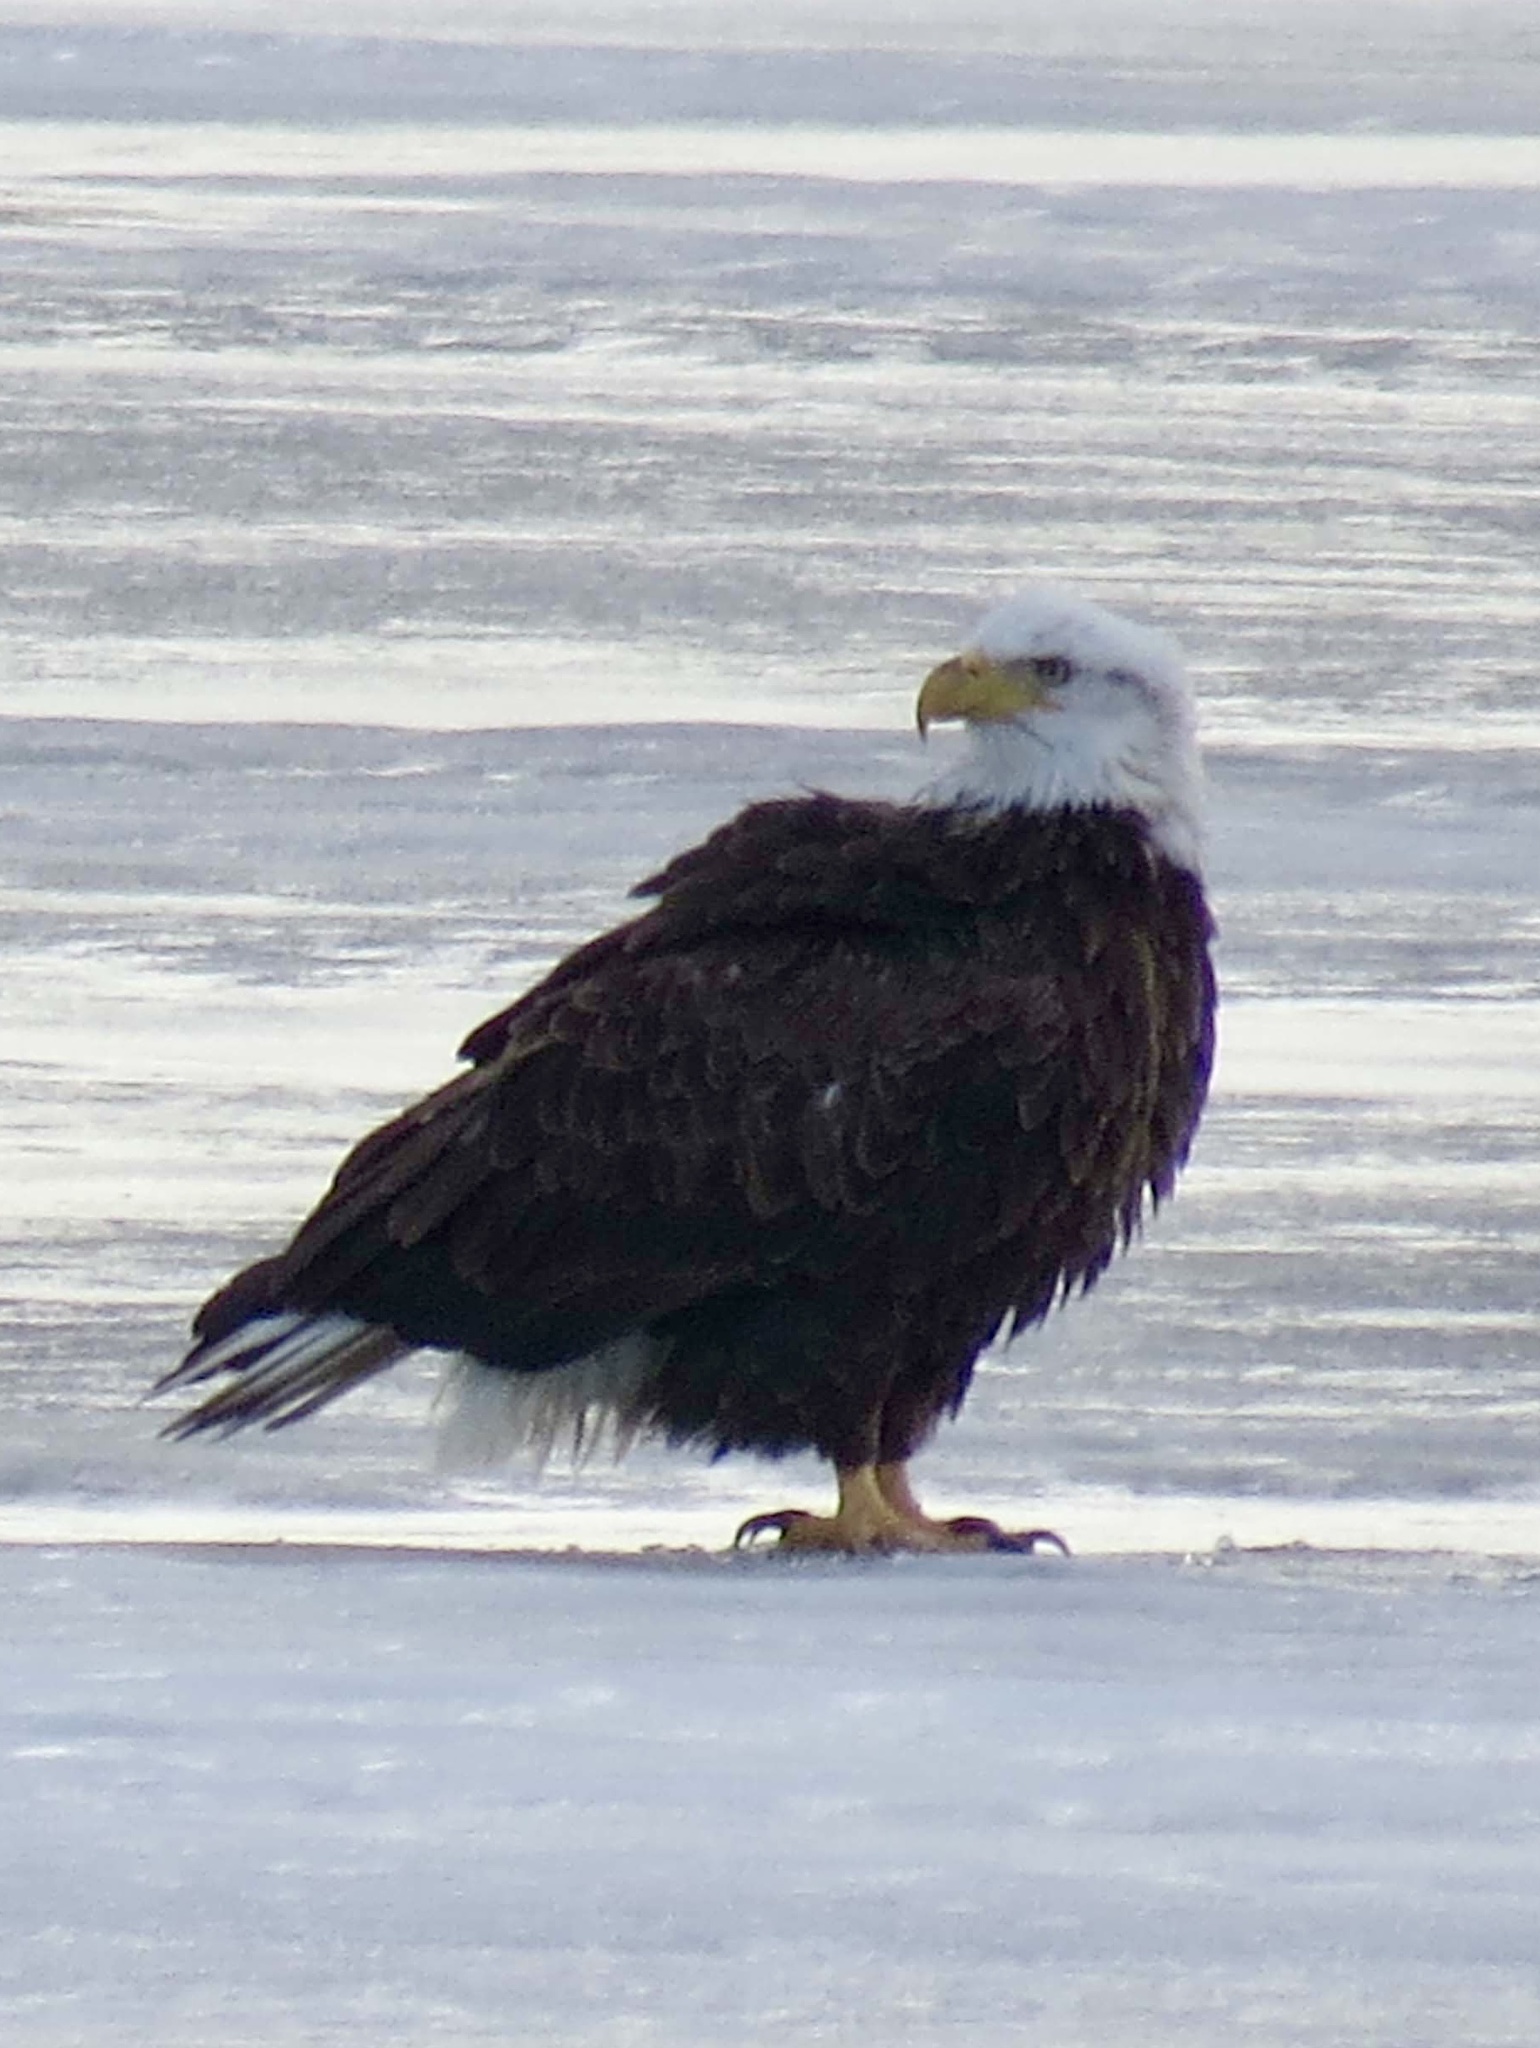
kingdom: Animalia
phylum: Chordata
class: Aves
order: Accipitriformes
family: Accipitridae
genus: Haliaeetus
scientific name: Haliaeetus leucocephalus
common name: Bald eagle
